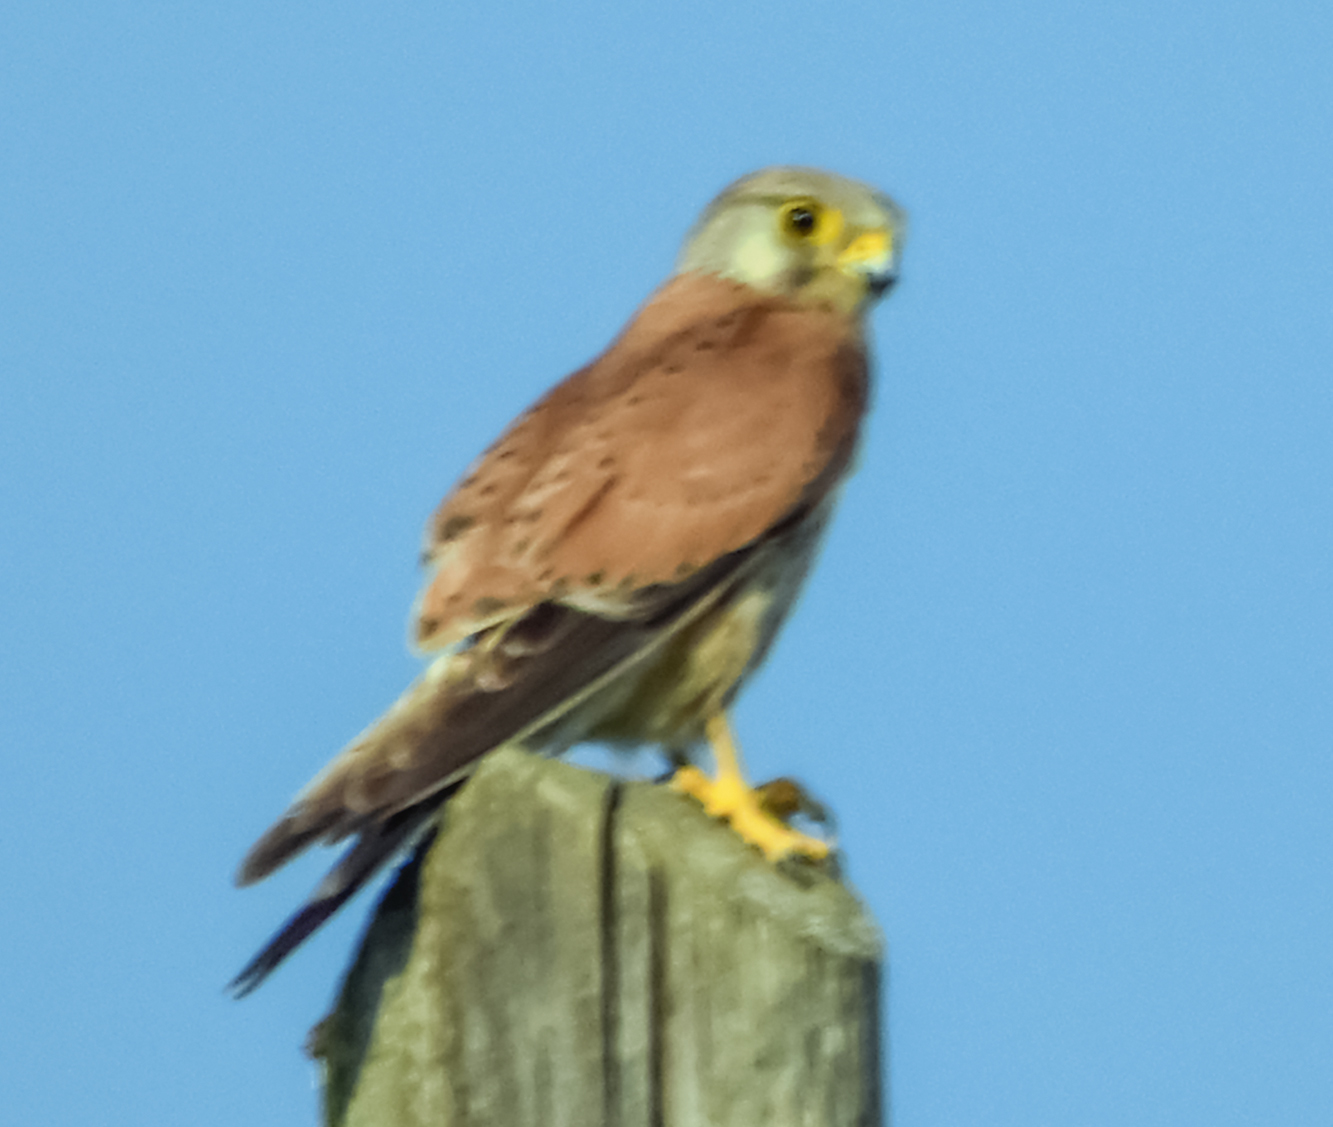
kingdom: Animalia
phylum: Chordata
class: Aves
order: Falconiformes
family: Falconidae
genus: Falco
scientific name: Falco tinnunculus
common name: Common kestrel
